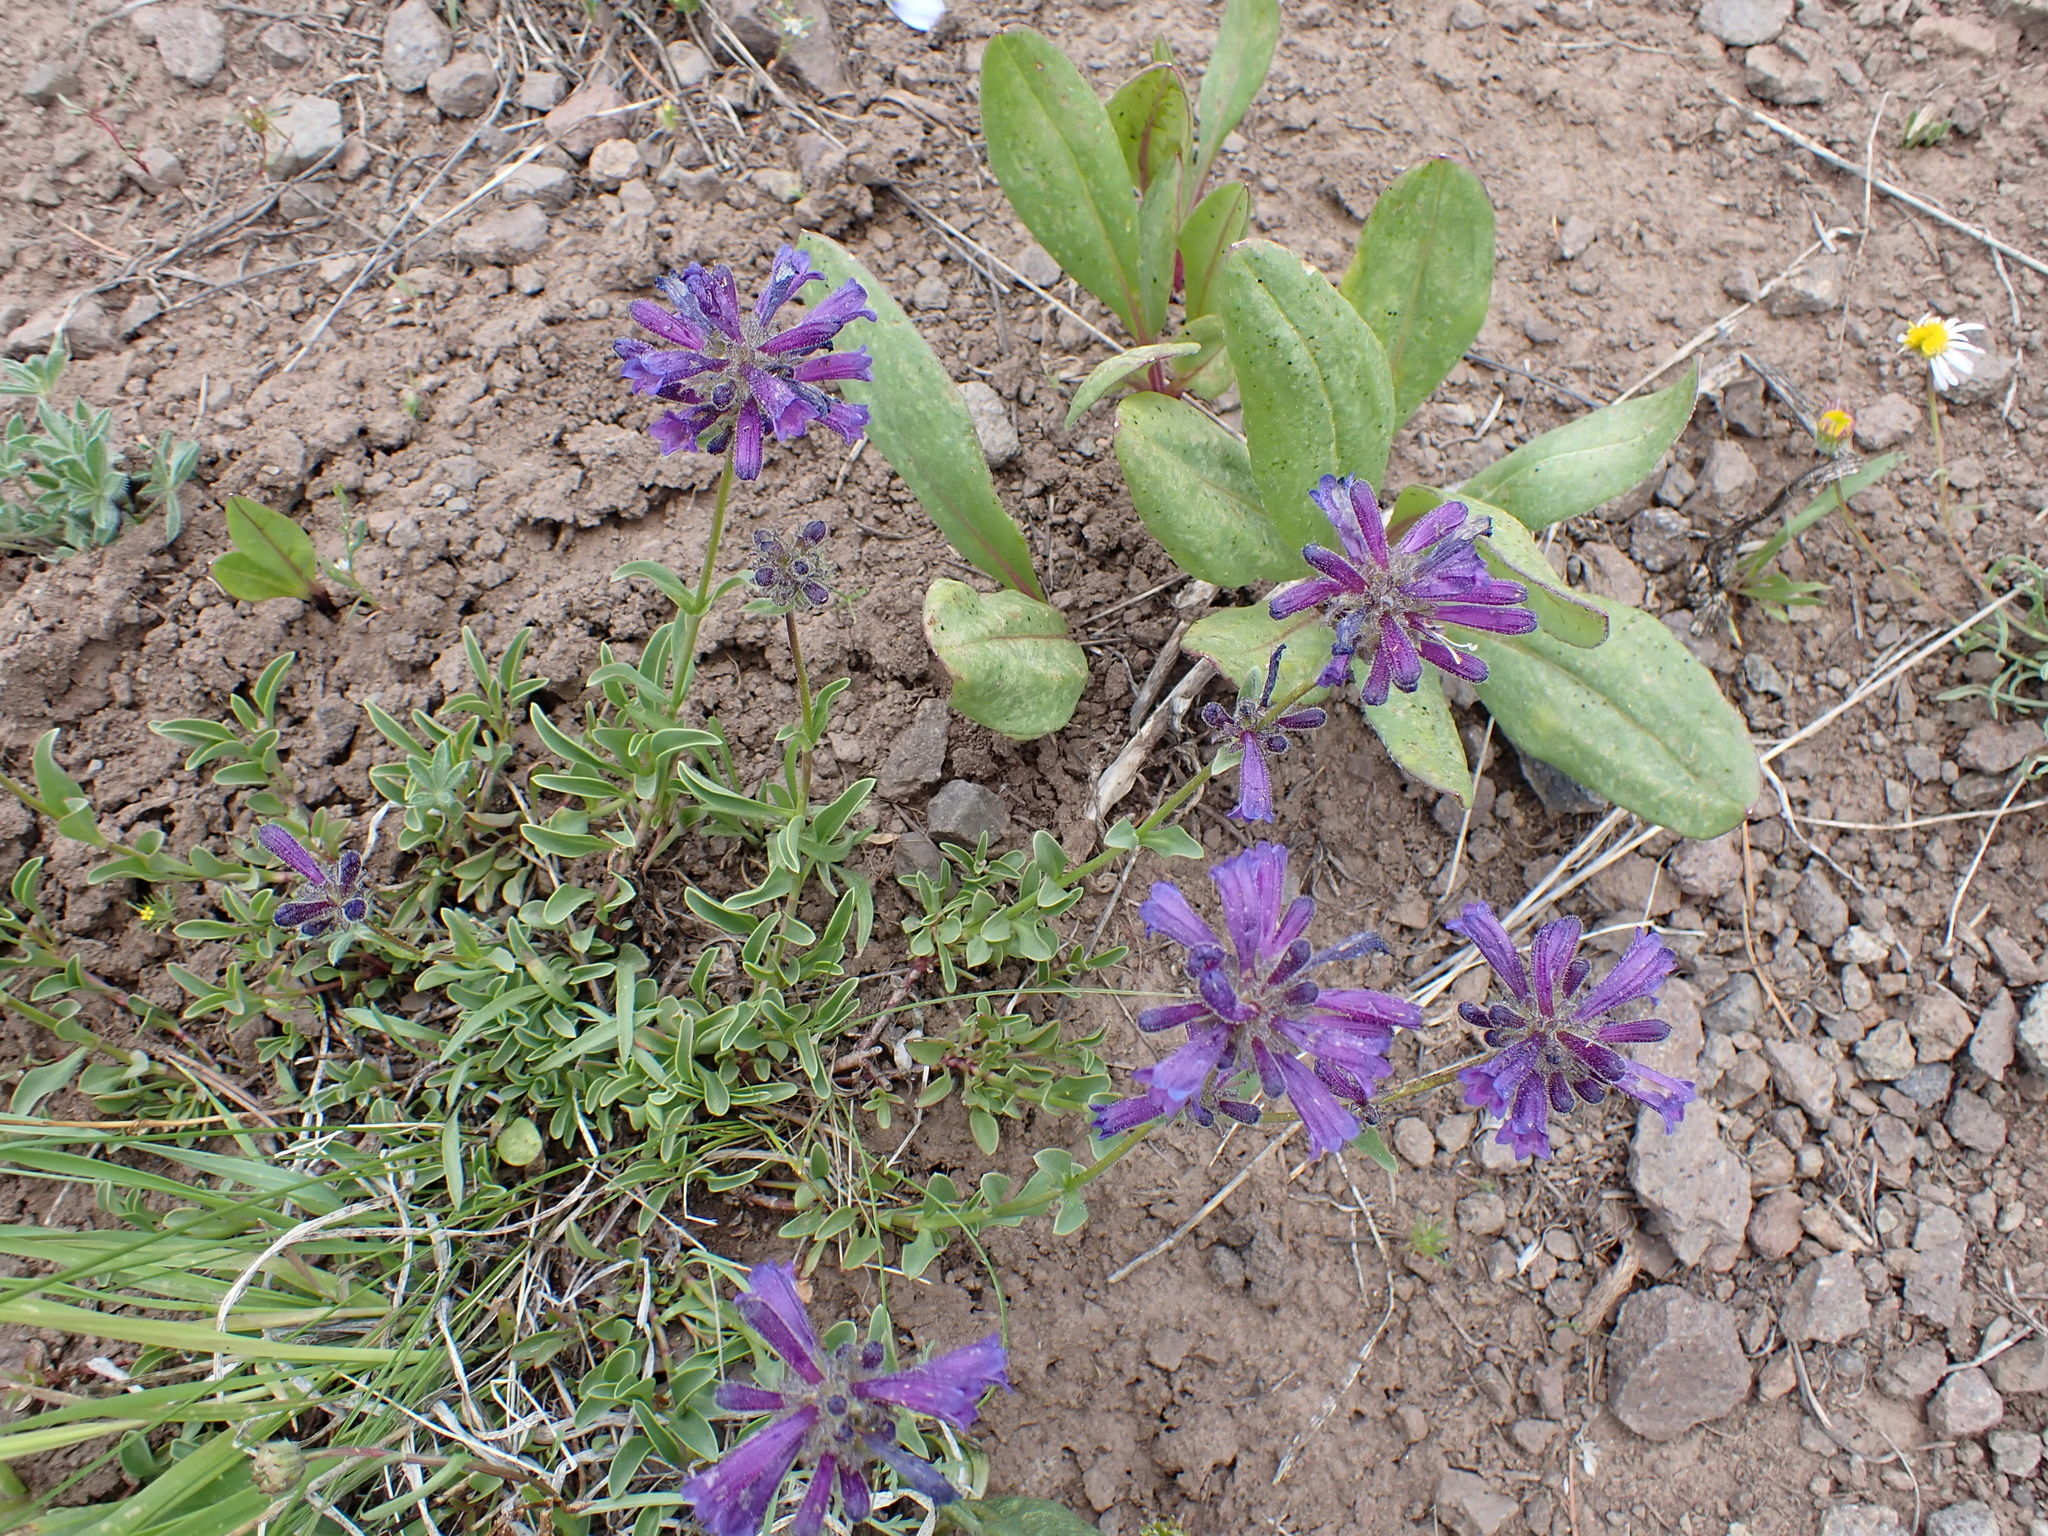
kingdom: Plantae
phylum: Tracheophyta
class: Magnoliopsida
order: Lamiales
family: Plantaginaceae
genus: Penstemon
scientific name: Penstemon heterodoxus
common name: Sierran penstemon
